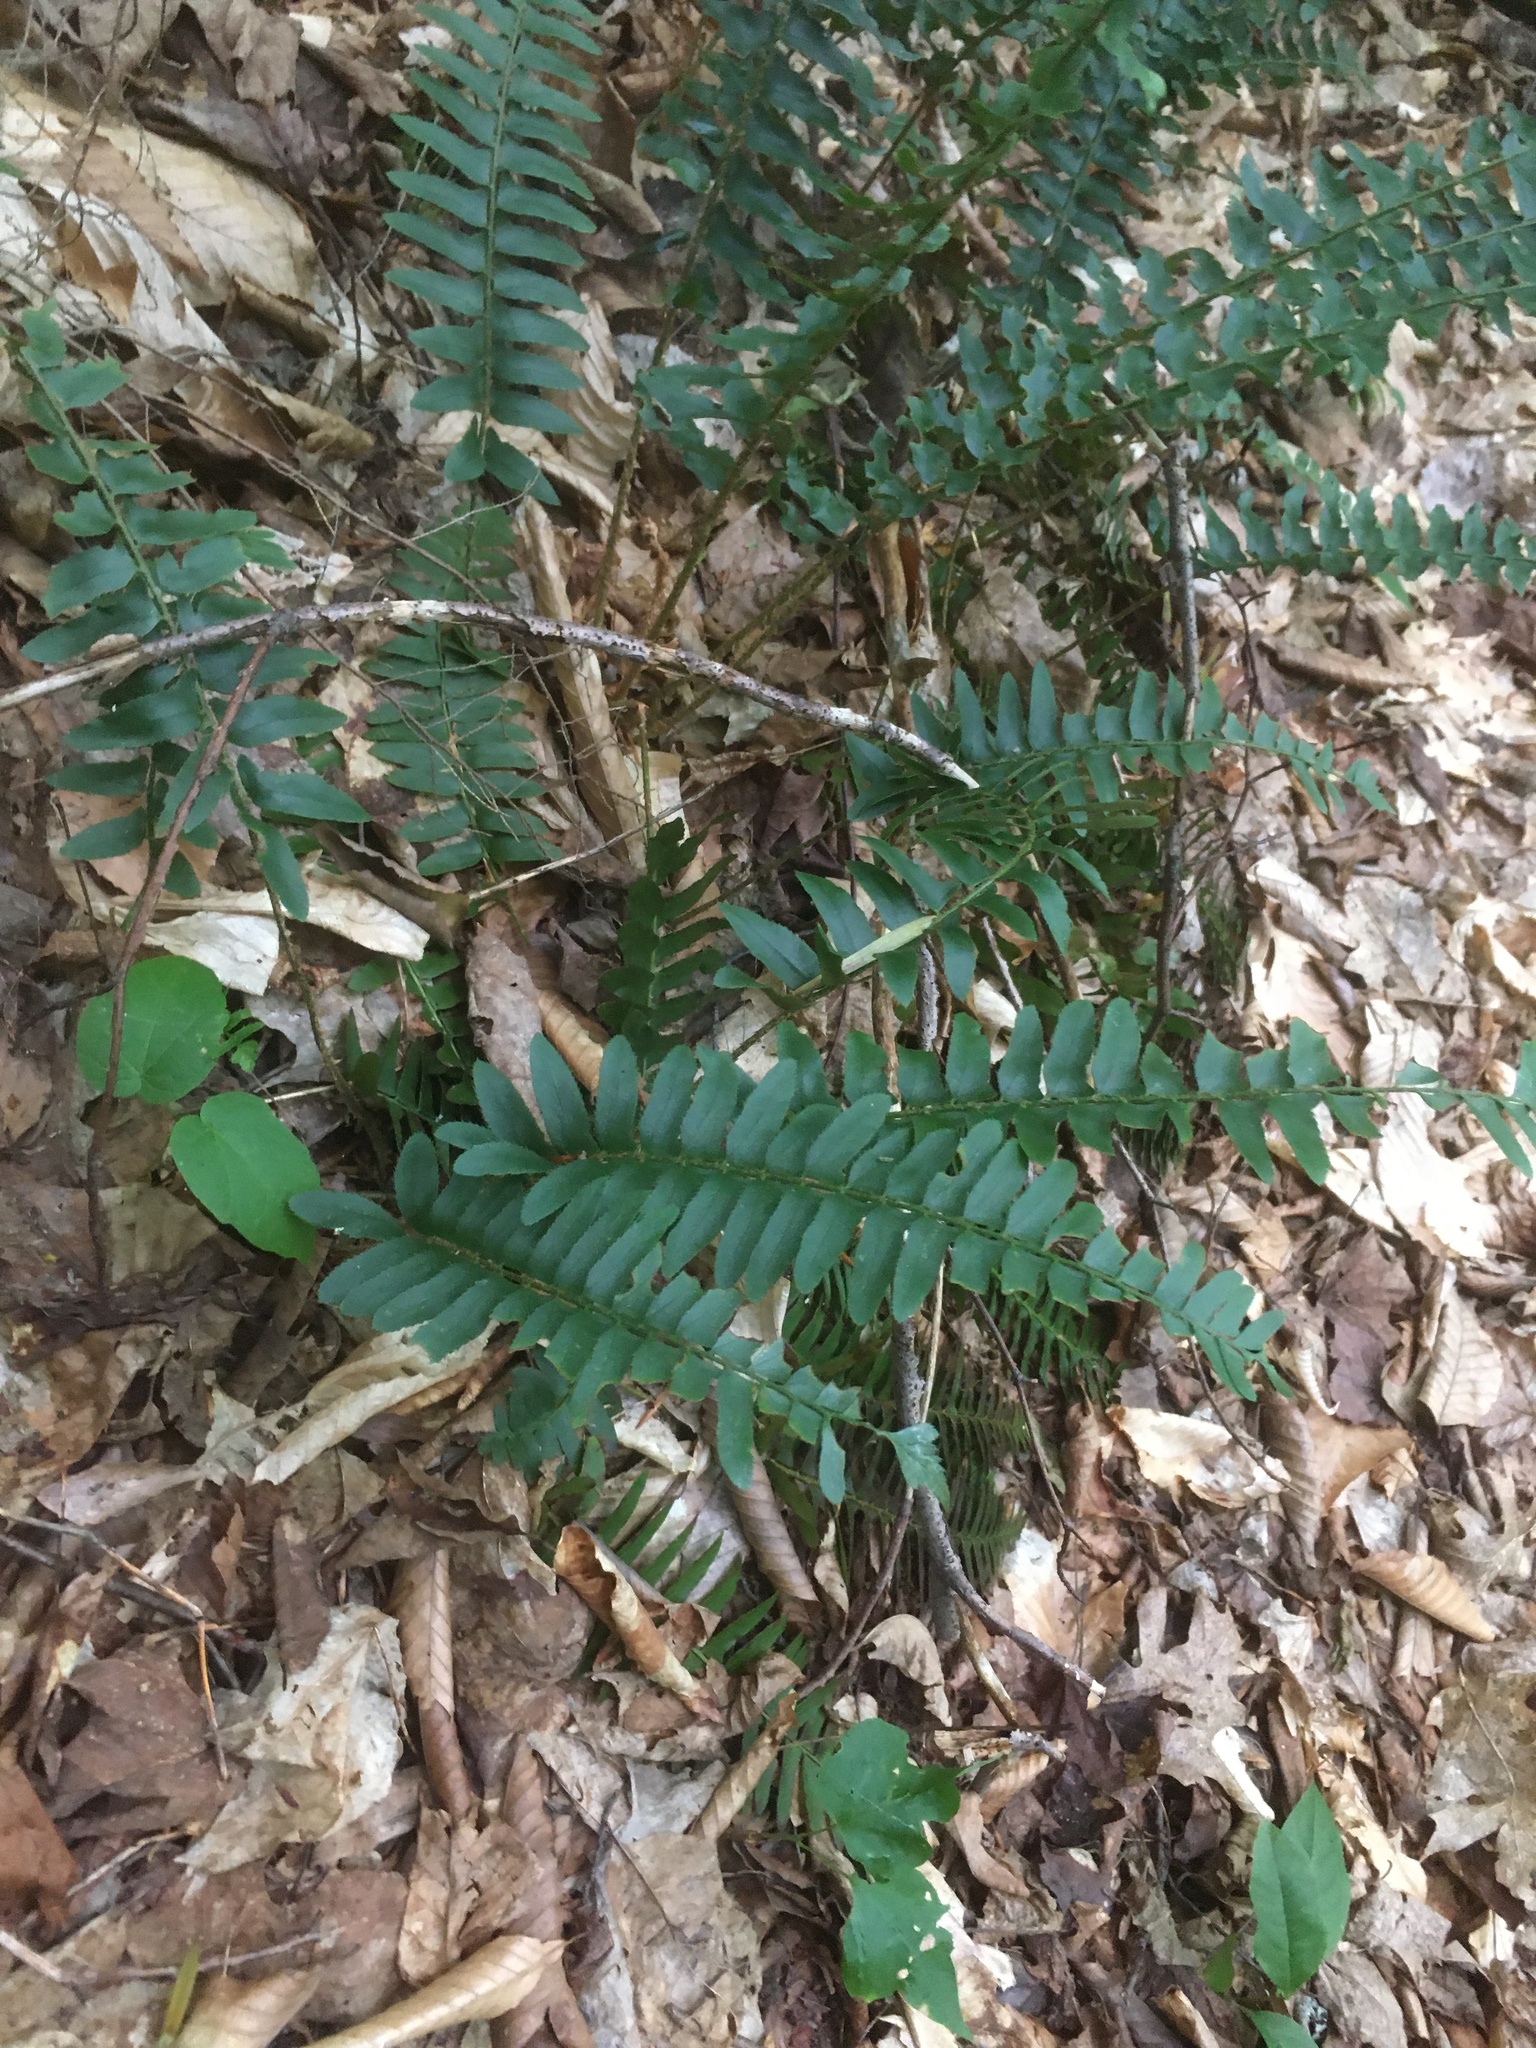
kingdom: Plantae
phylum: Tracheophyta
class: Polypodiopsida
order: Polypodiales
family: Dryopteridaceae
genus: Polystichum
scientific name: Polystichum acrostichoides
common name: Christmas fern
